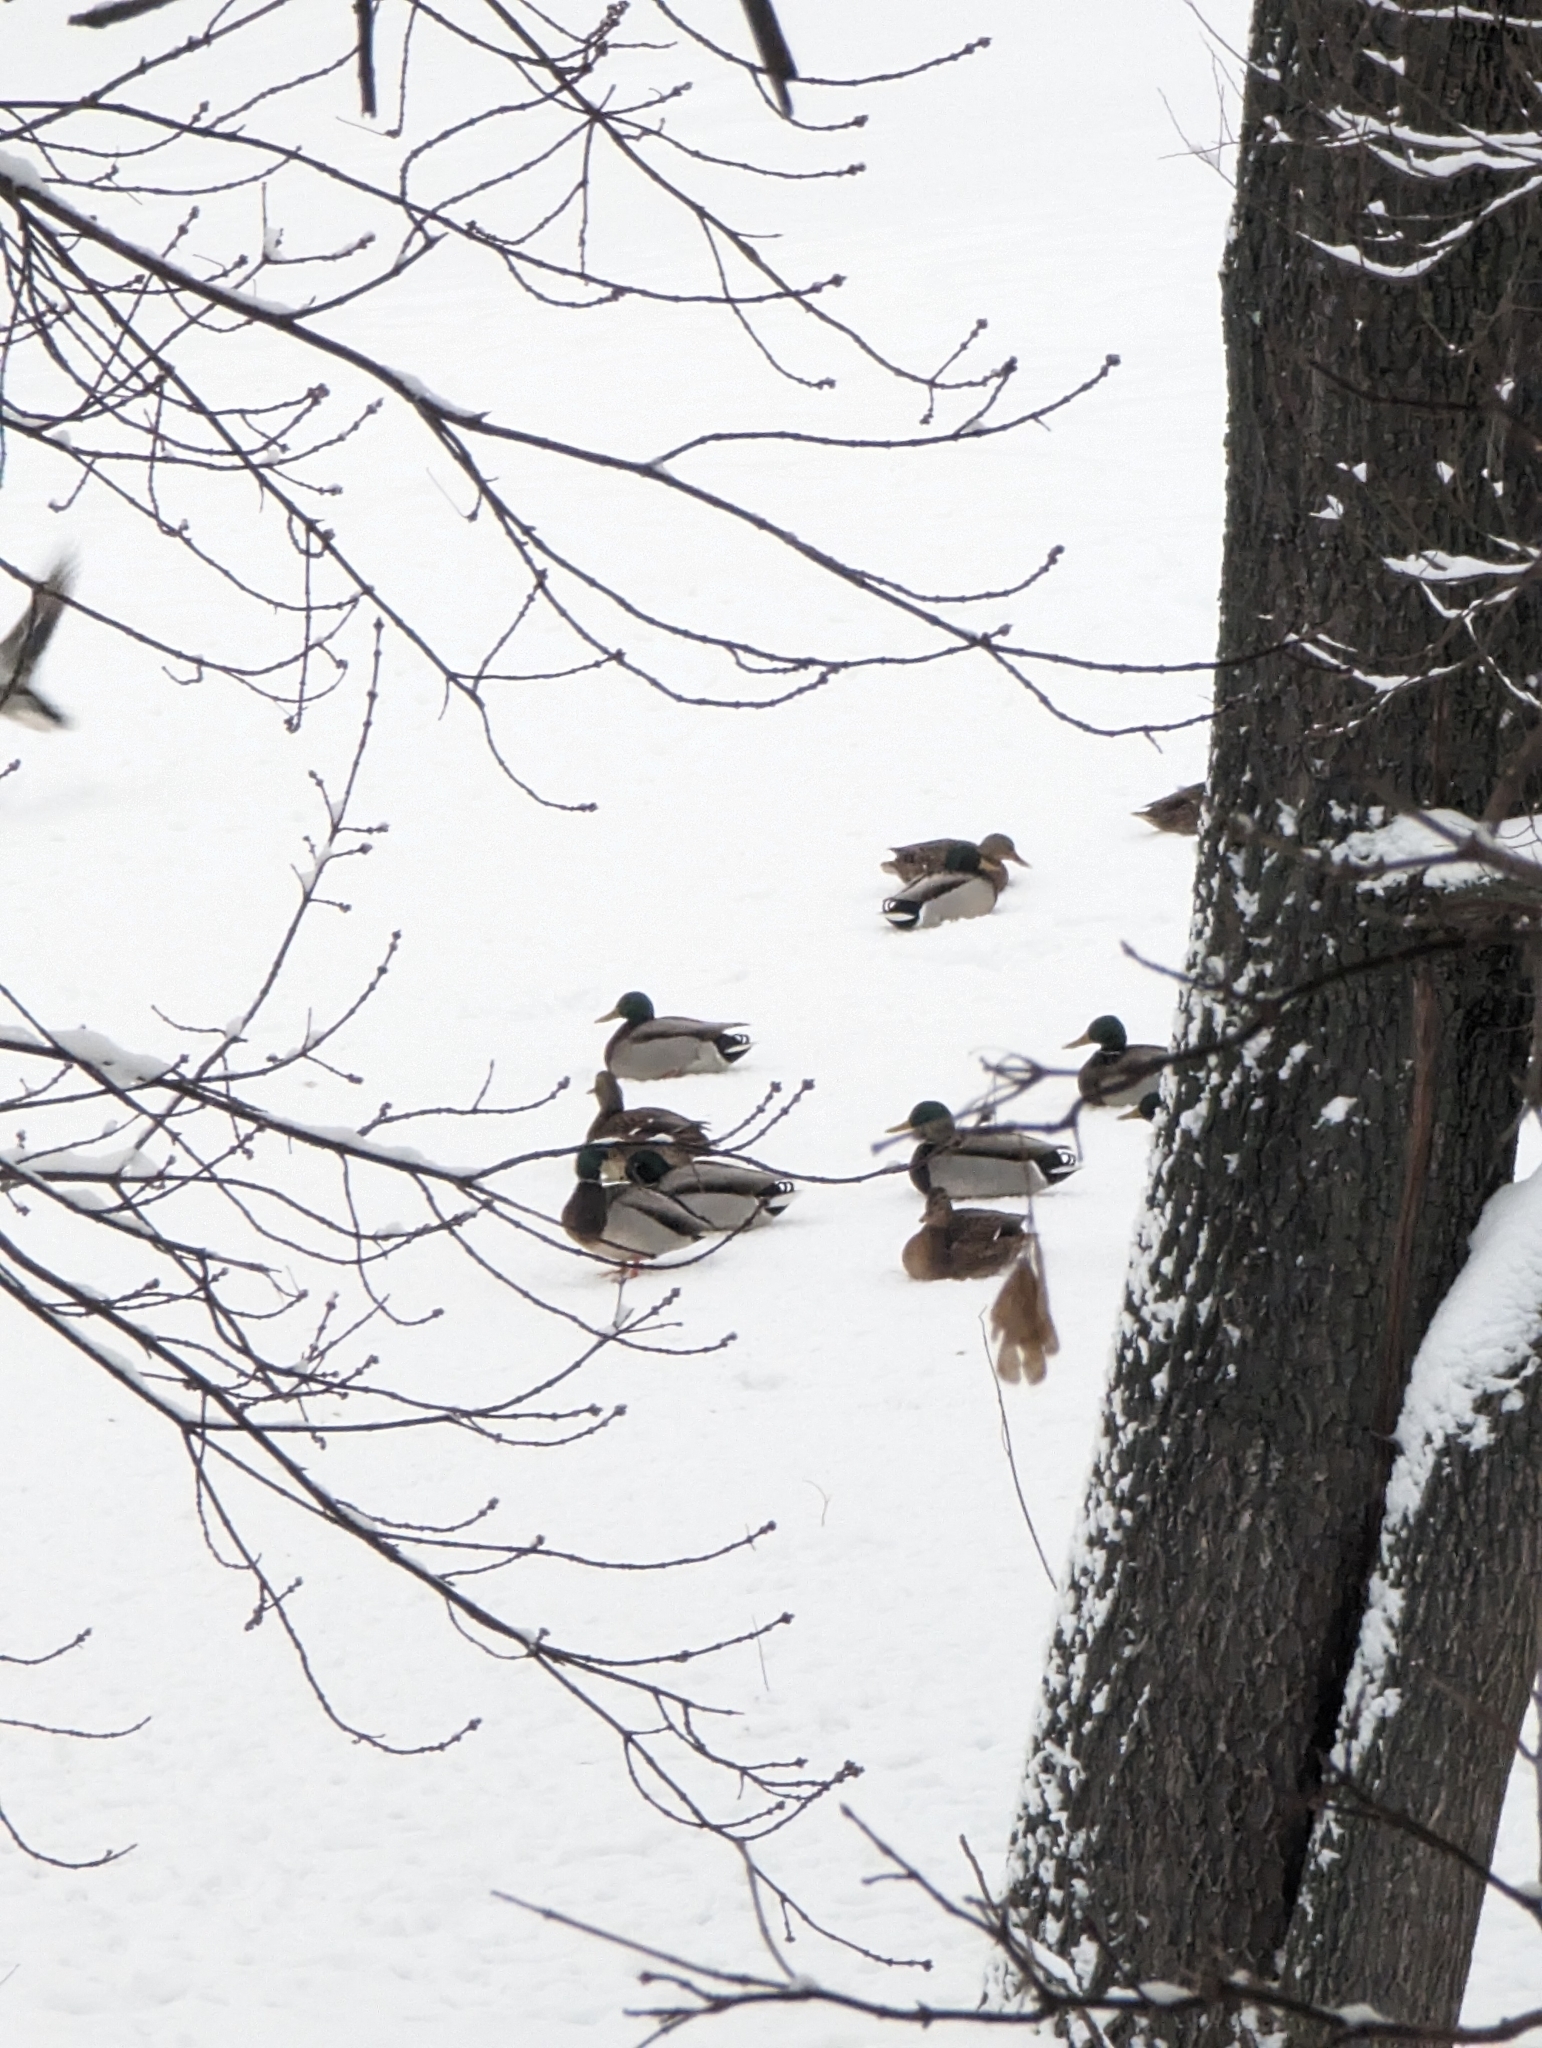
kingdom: Animalia
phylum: Chordata
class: Aves
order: Anseriformes
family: Anatidae
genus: Anas
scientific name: Anas platyrhynchos
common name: Mallard
